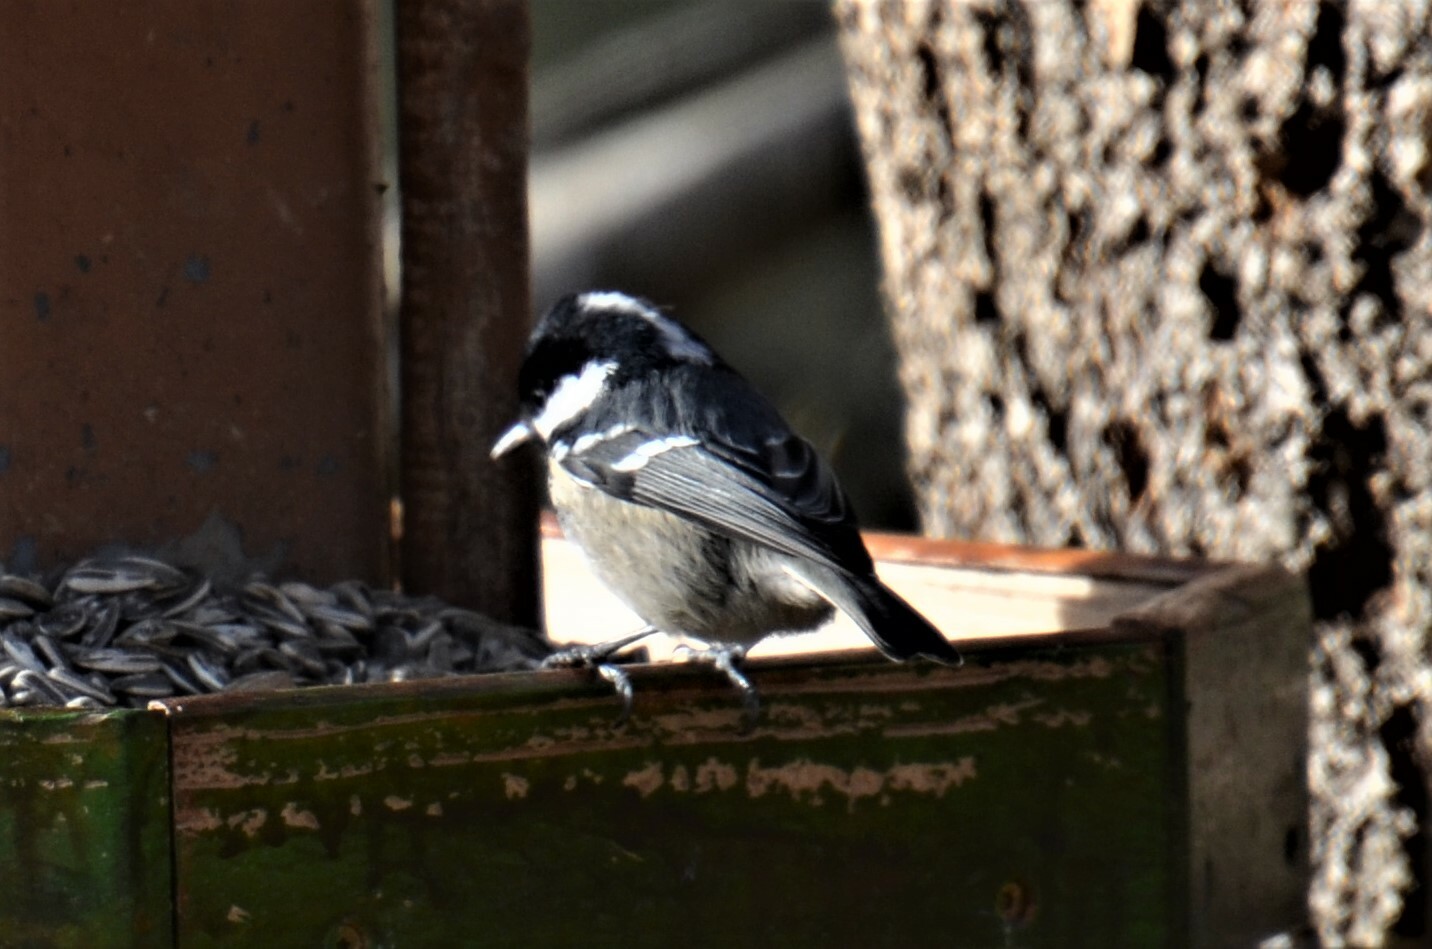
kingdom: Animalia
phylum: Chordata
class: Aves
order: Passeriformes
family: Paridae
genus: Periparus
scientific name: Periparus ater
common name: Coal tit
